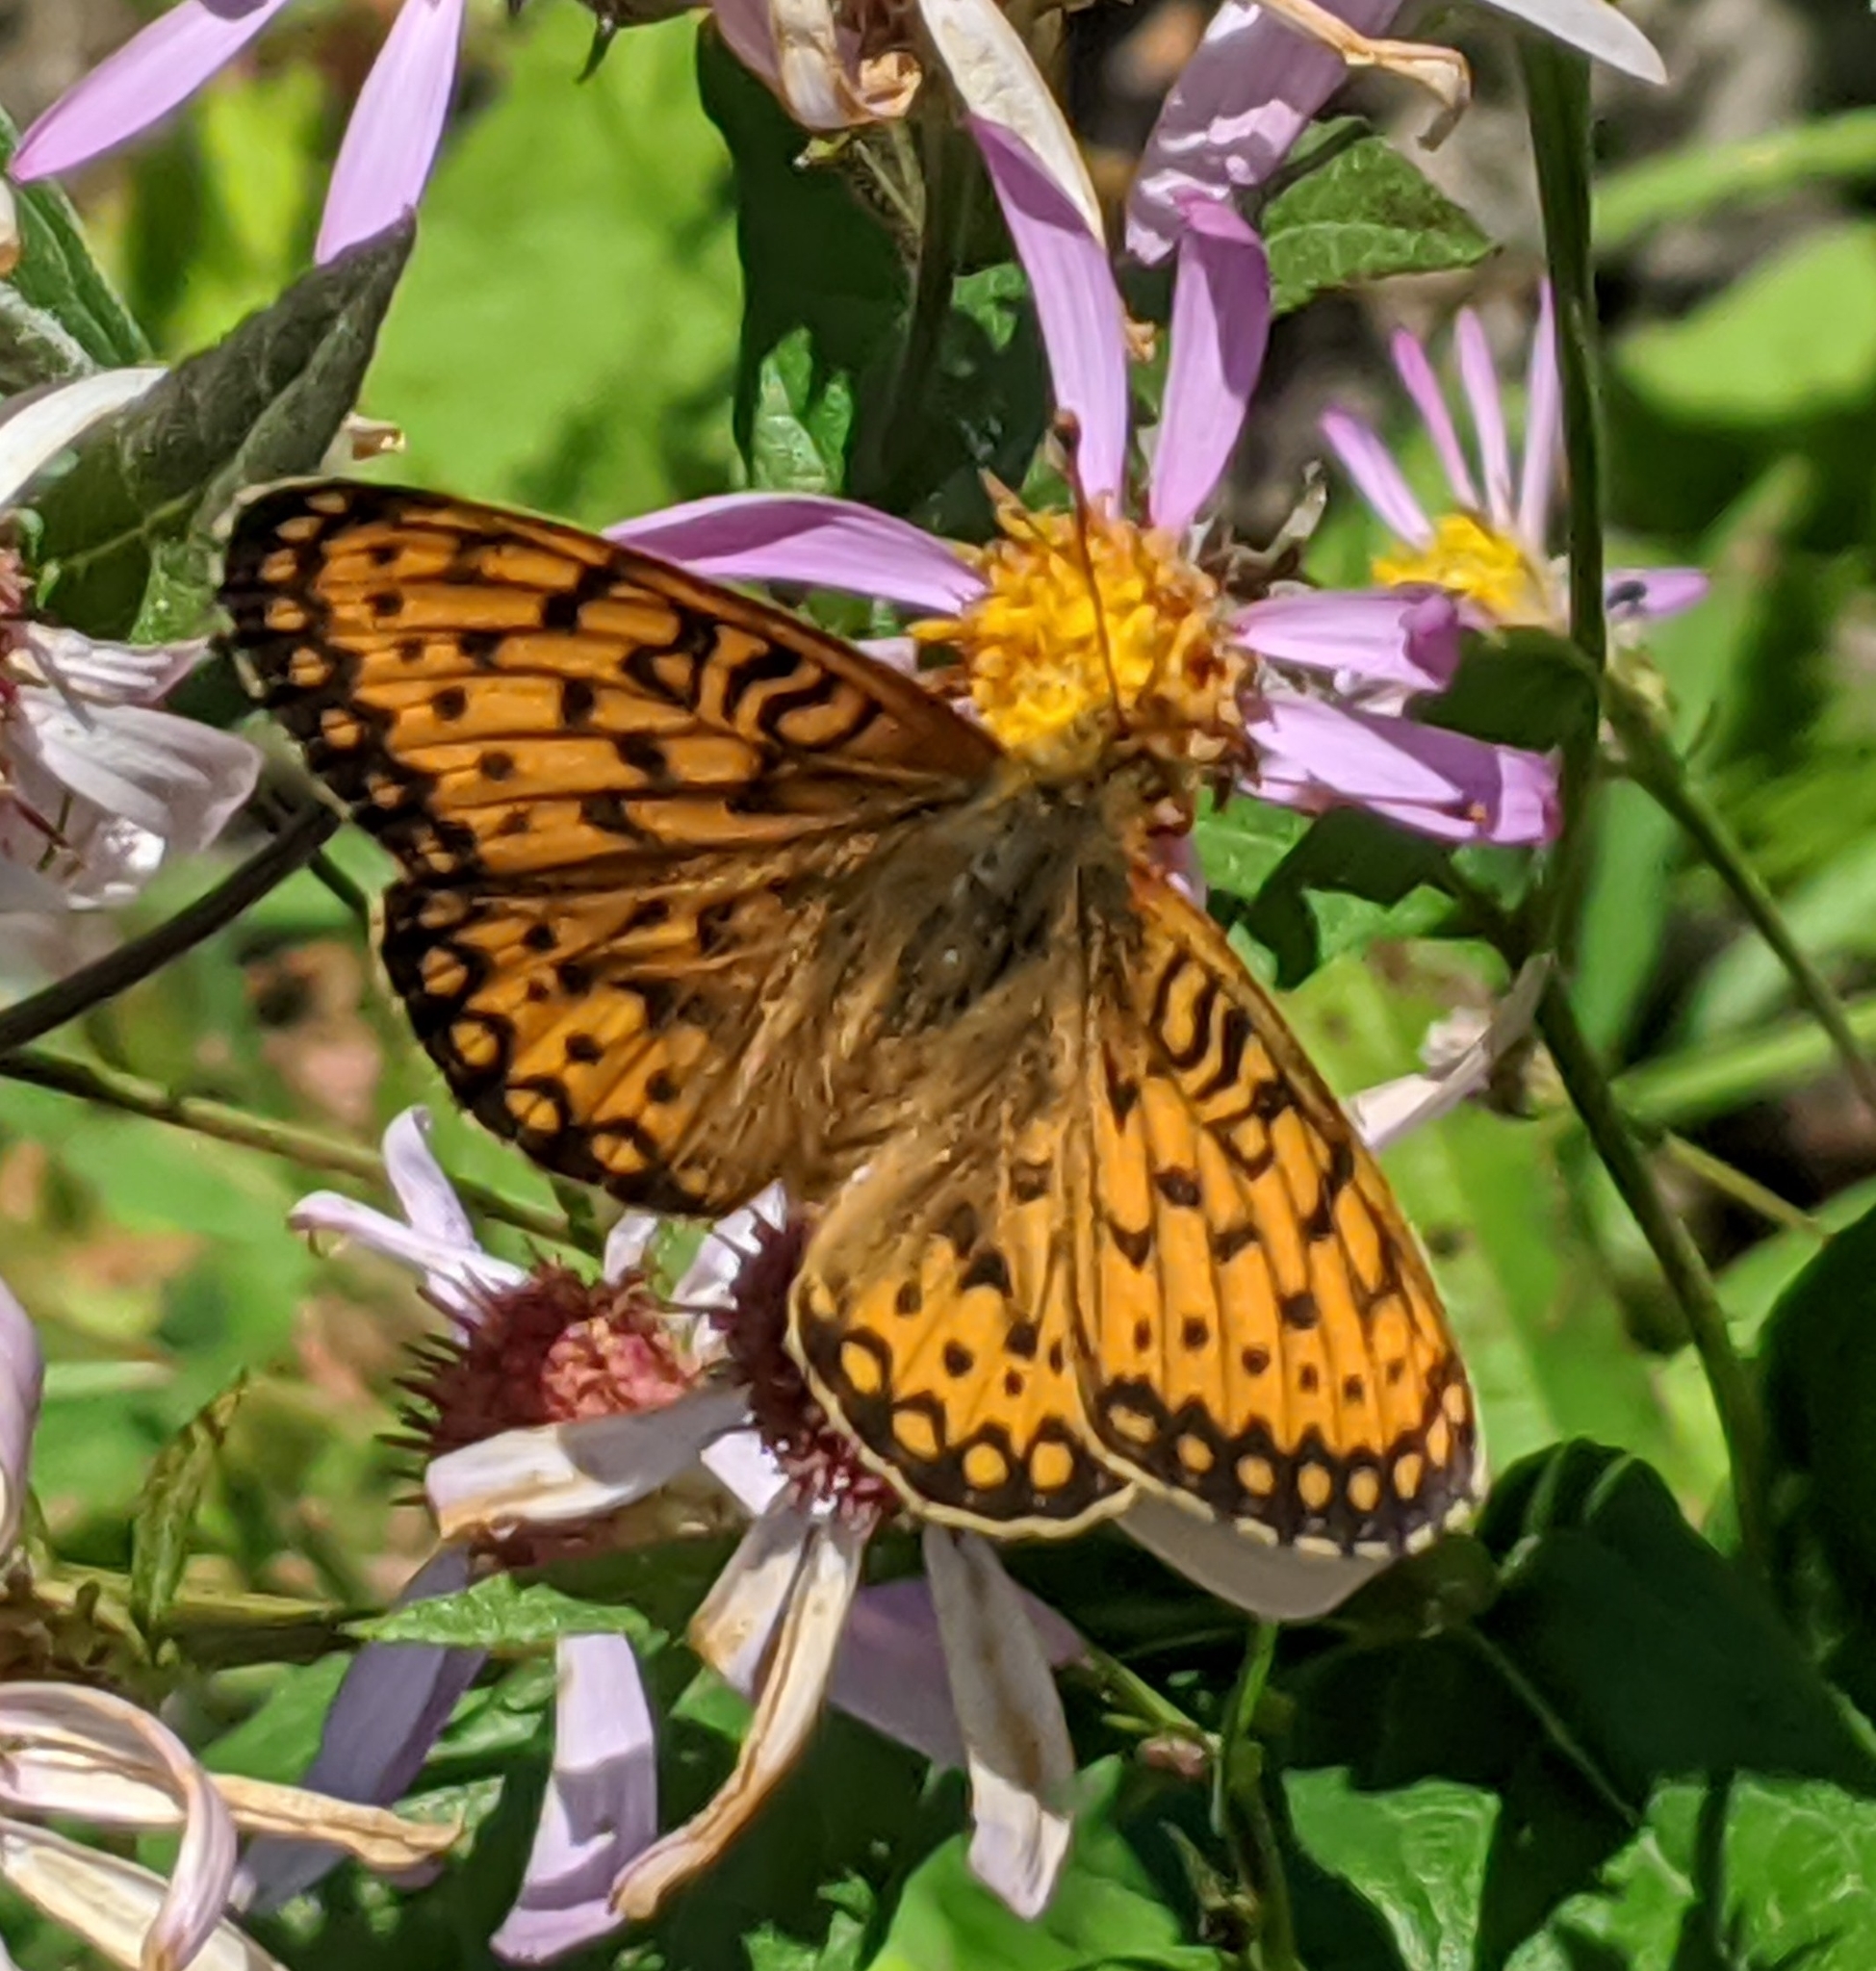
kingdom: Animalia
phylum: Arthropoda
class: Insecta
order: Lepidoptera
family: Nymphalidae
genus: Speyeria
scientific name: Speyeria mormonia
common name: Mormon fritillary
